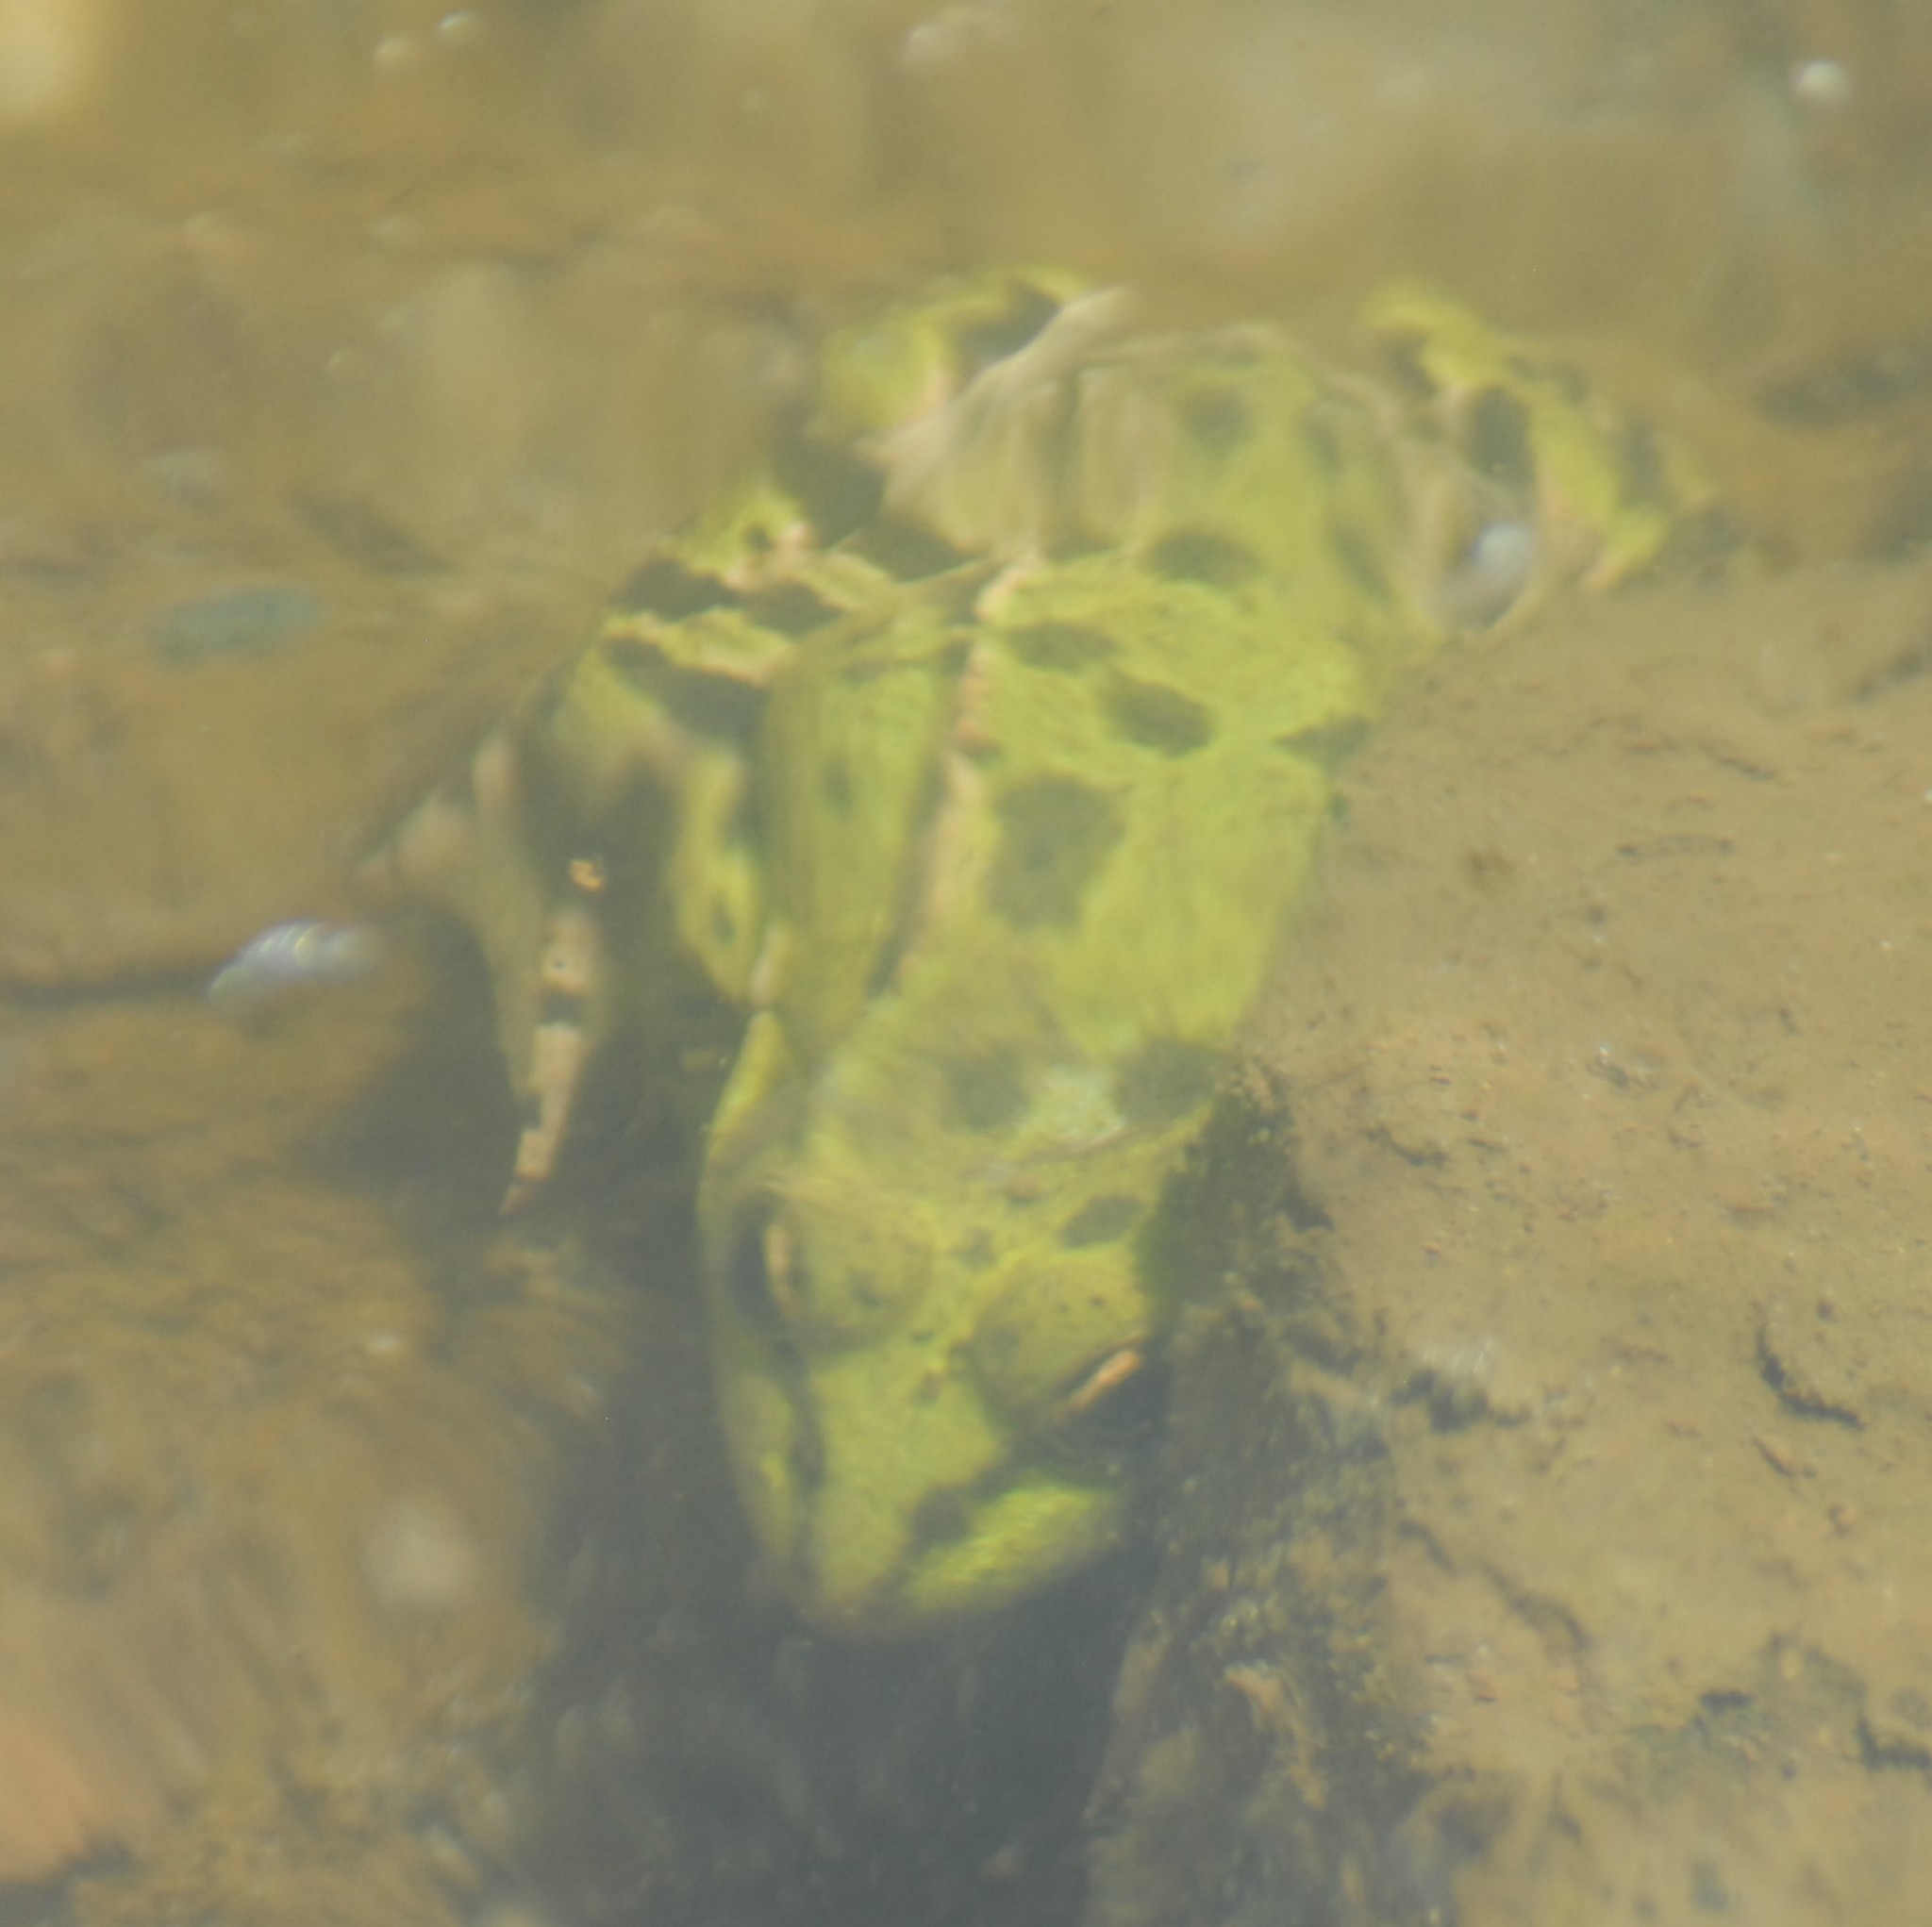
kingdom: Animalia
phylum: Chordata
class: Amphibia
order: Anura
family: Ranidae
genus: Pelophylax
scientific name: Pelophylax ridibundus
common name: Marsh frog
